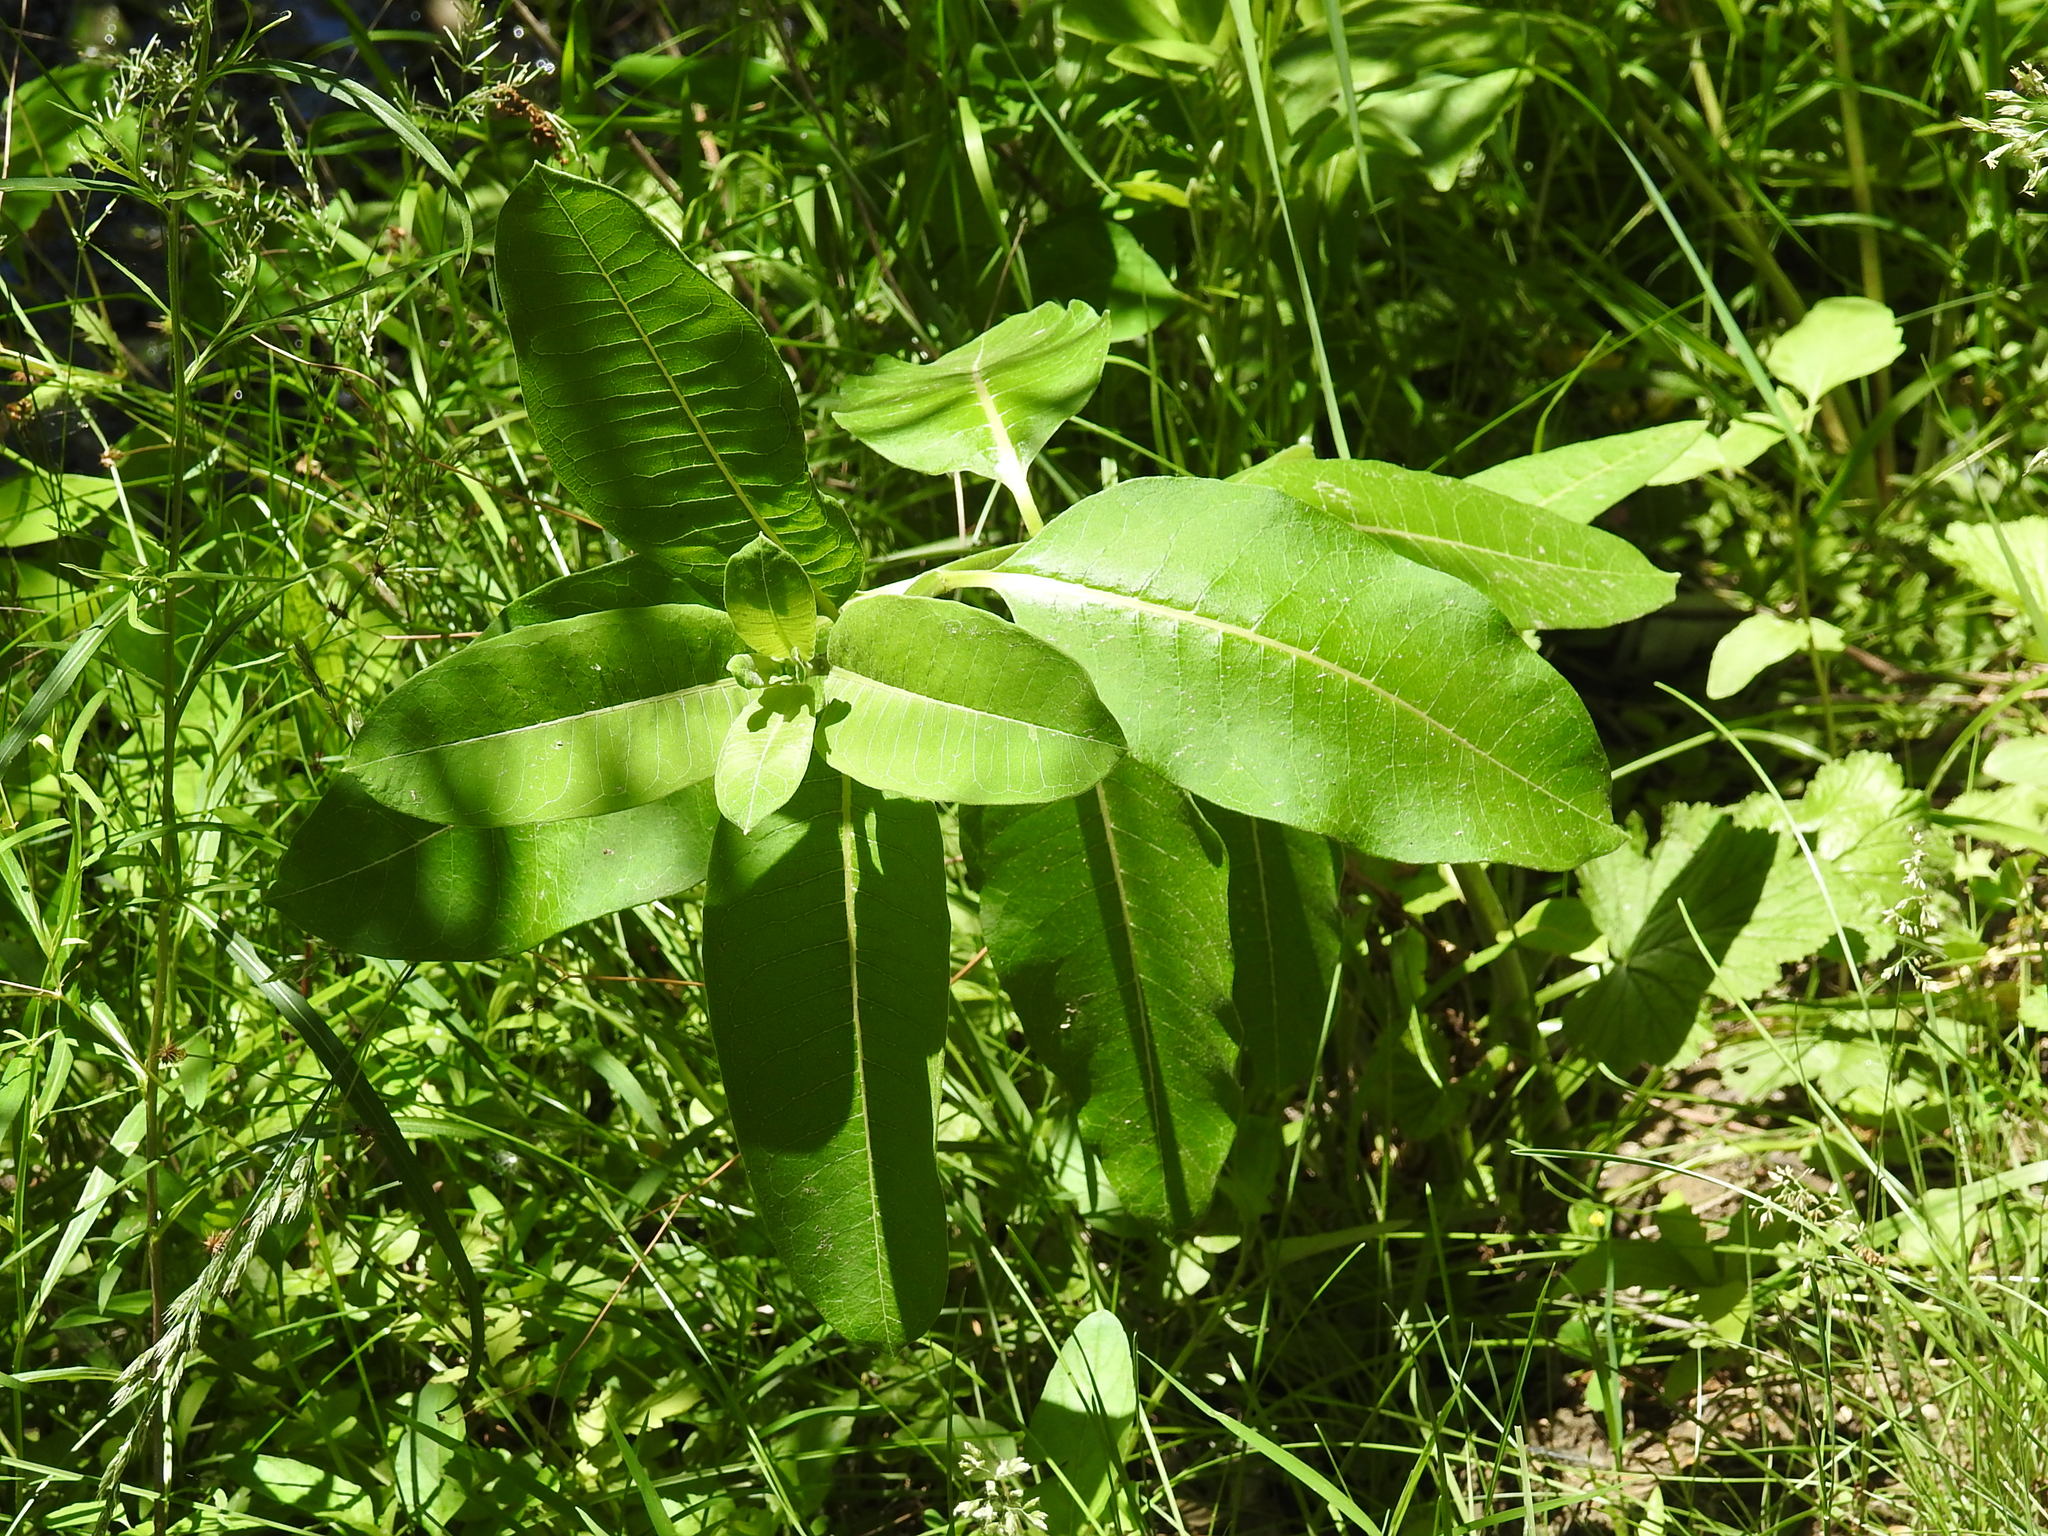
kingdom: Plantae
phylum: Tracheophyta
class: Magnoliopsida
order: Gentianales
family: Apocynaceae
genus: Asclepias
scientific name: Asclepias syriaca
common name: Common milkweed
